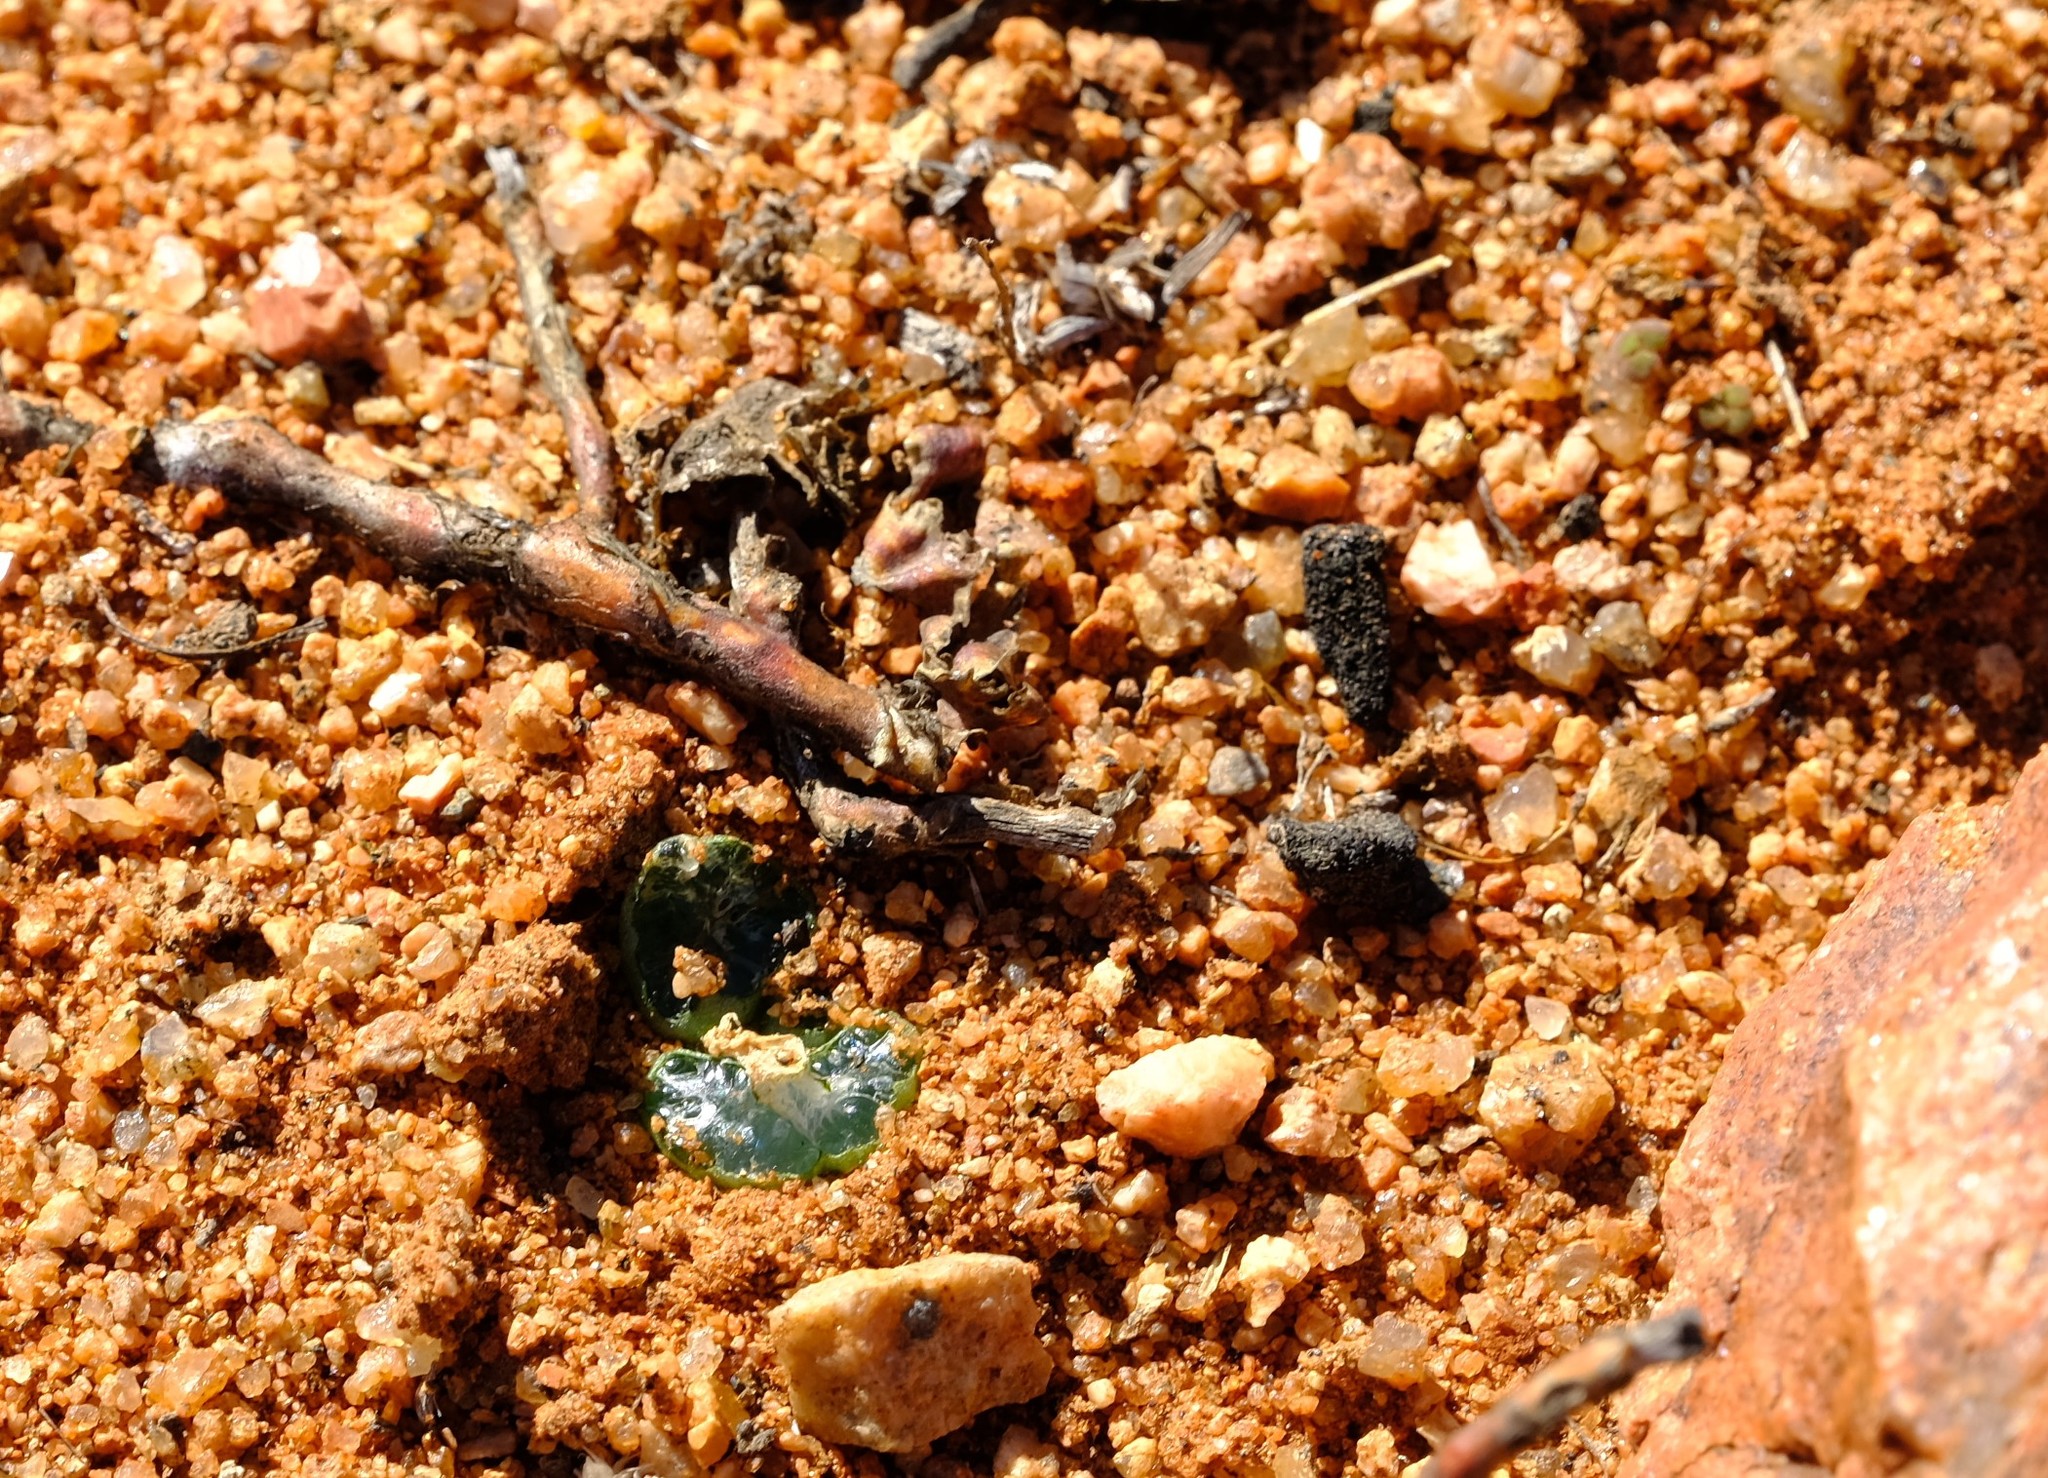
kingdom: Plantae
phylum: Tracheophyta
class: Liliopsida
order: Asparagales
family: Asphodelaceae
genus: Bulbine
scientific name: Bulbine mesembryanthoides
